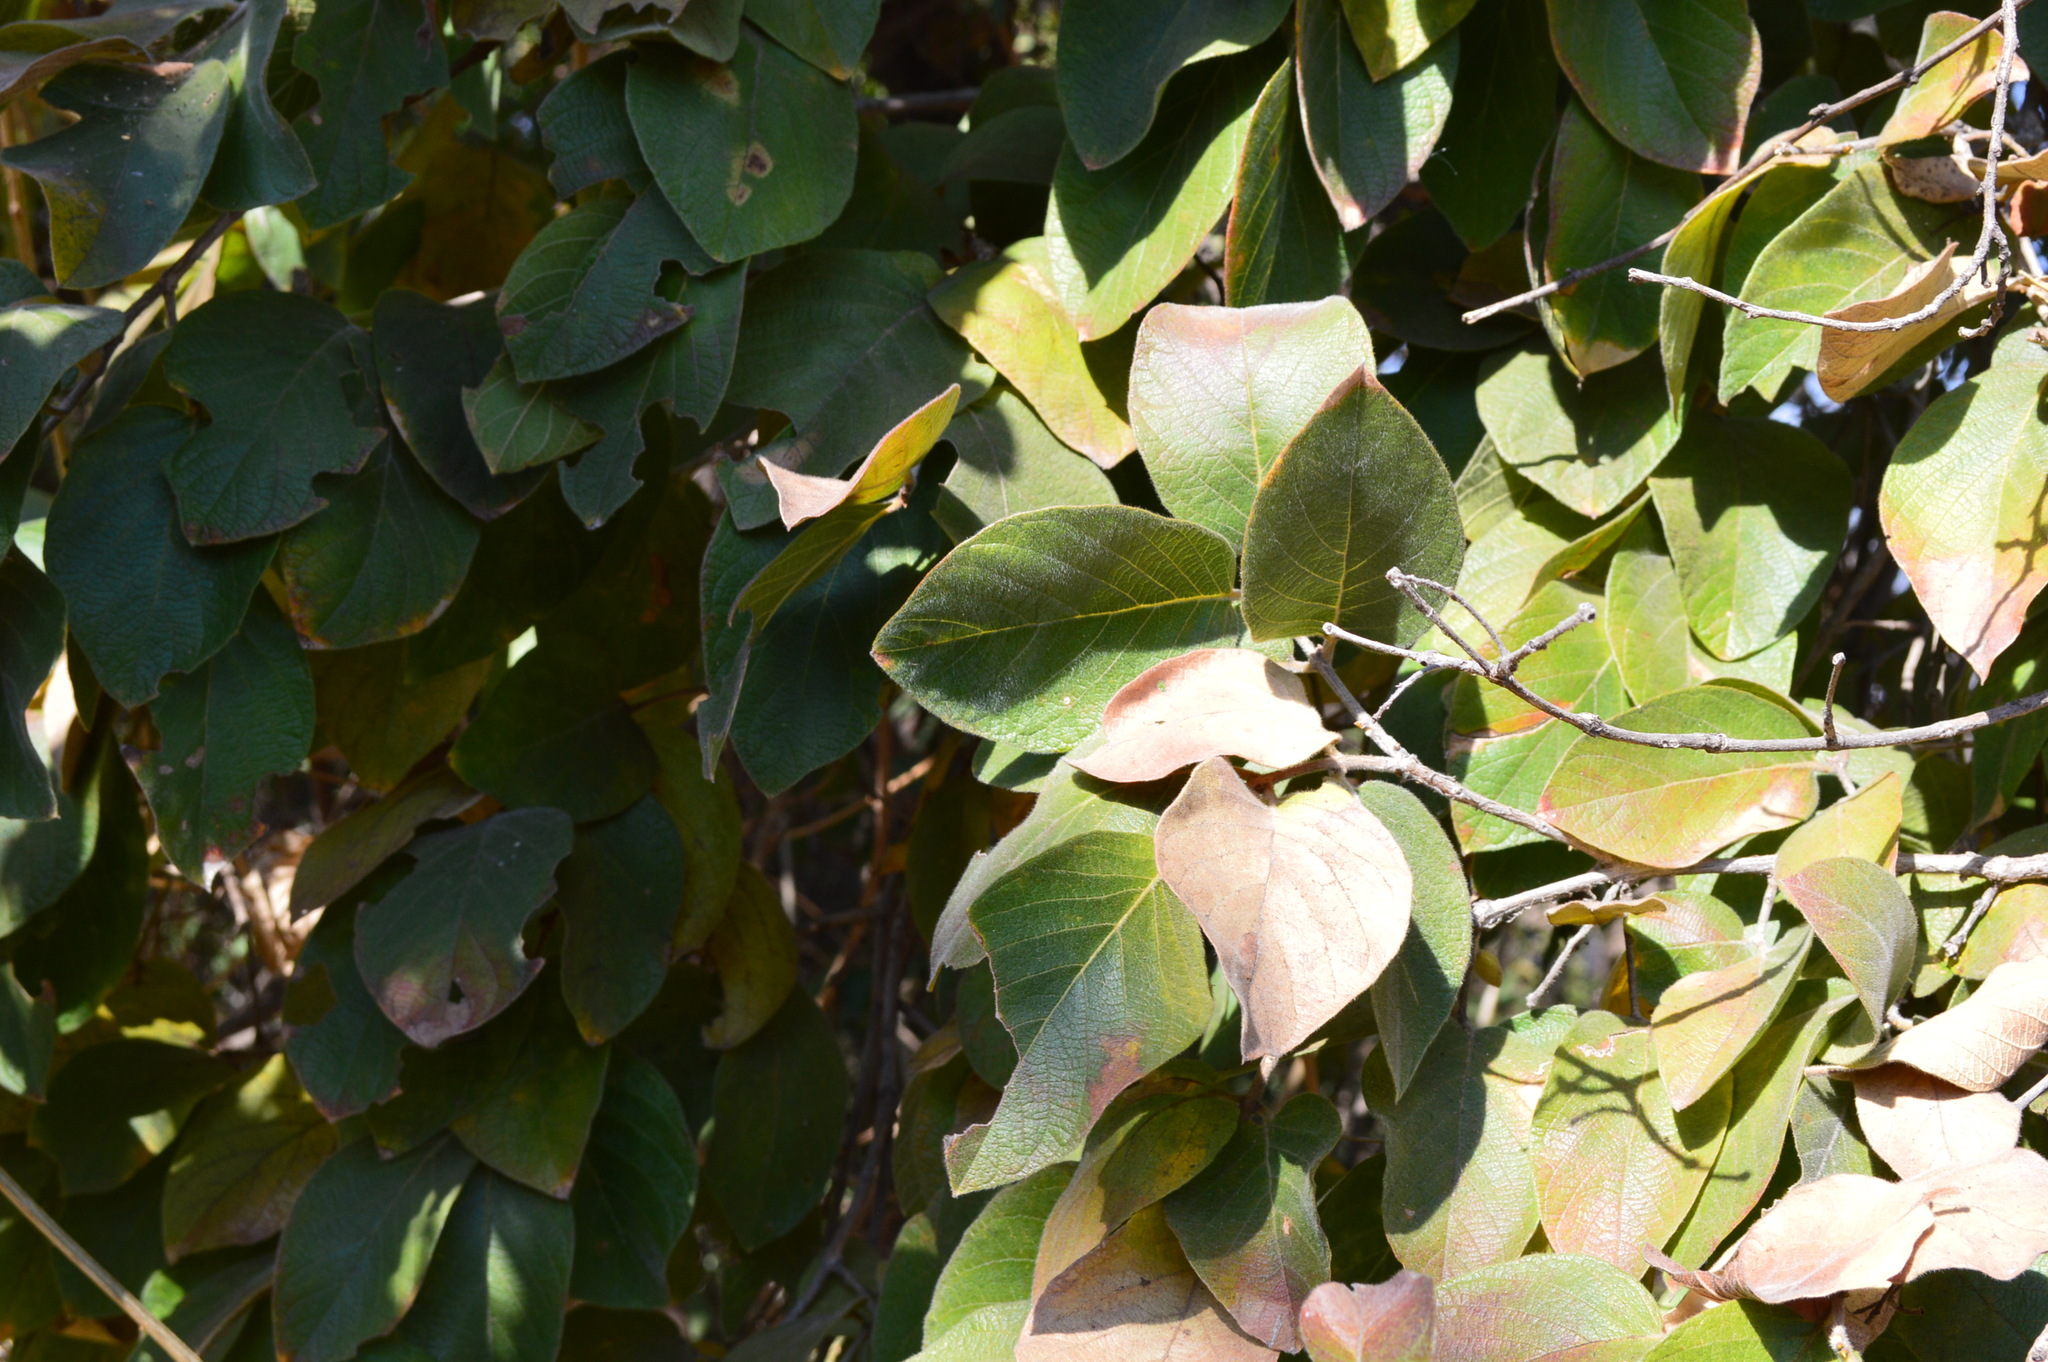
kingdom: Plantae
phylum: Tracheophyta
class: Magnoliopsida
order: Myrtales
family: Combretaceae
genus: Combretum
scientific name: Combretum molle
